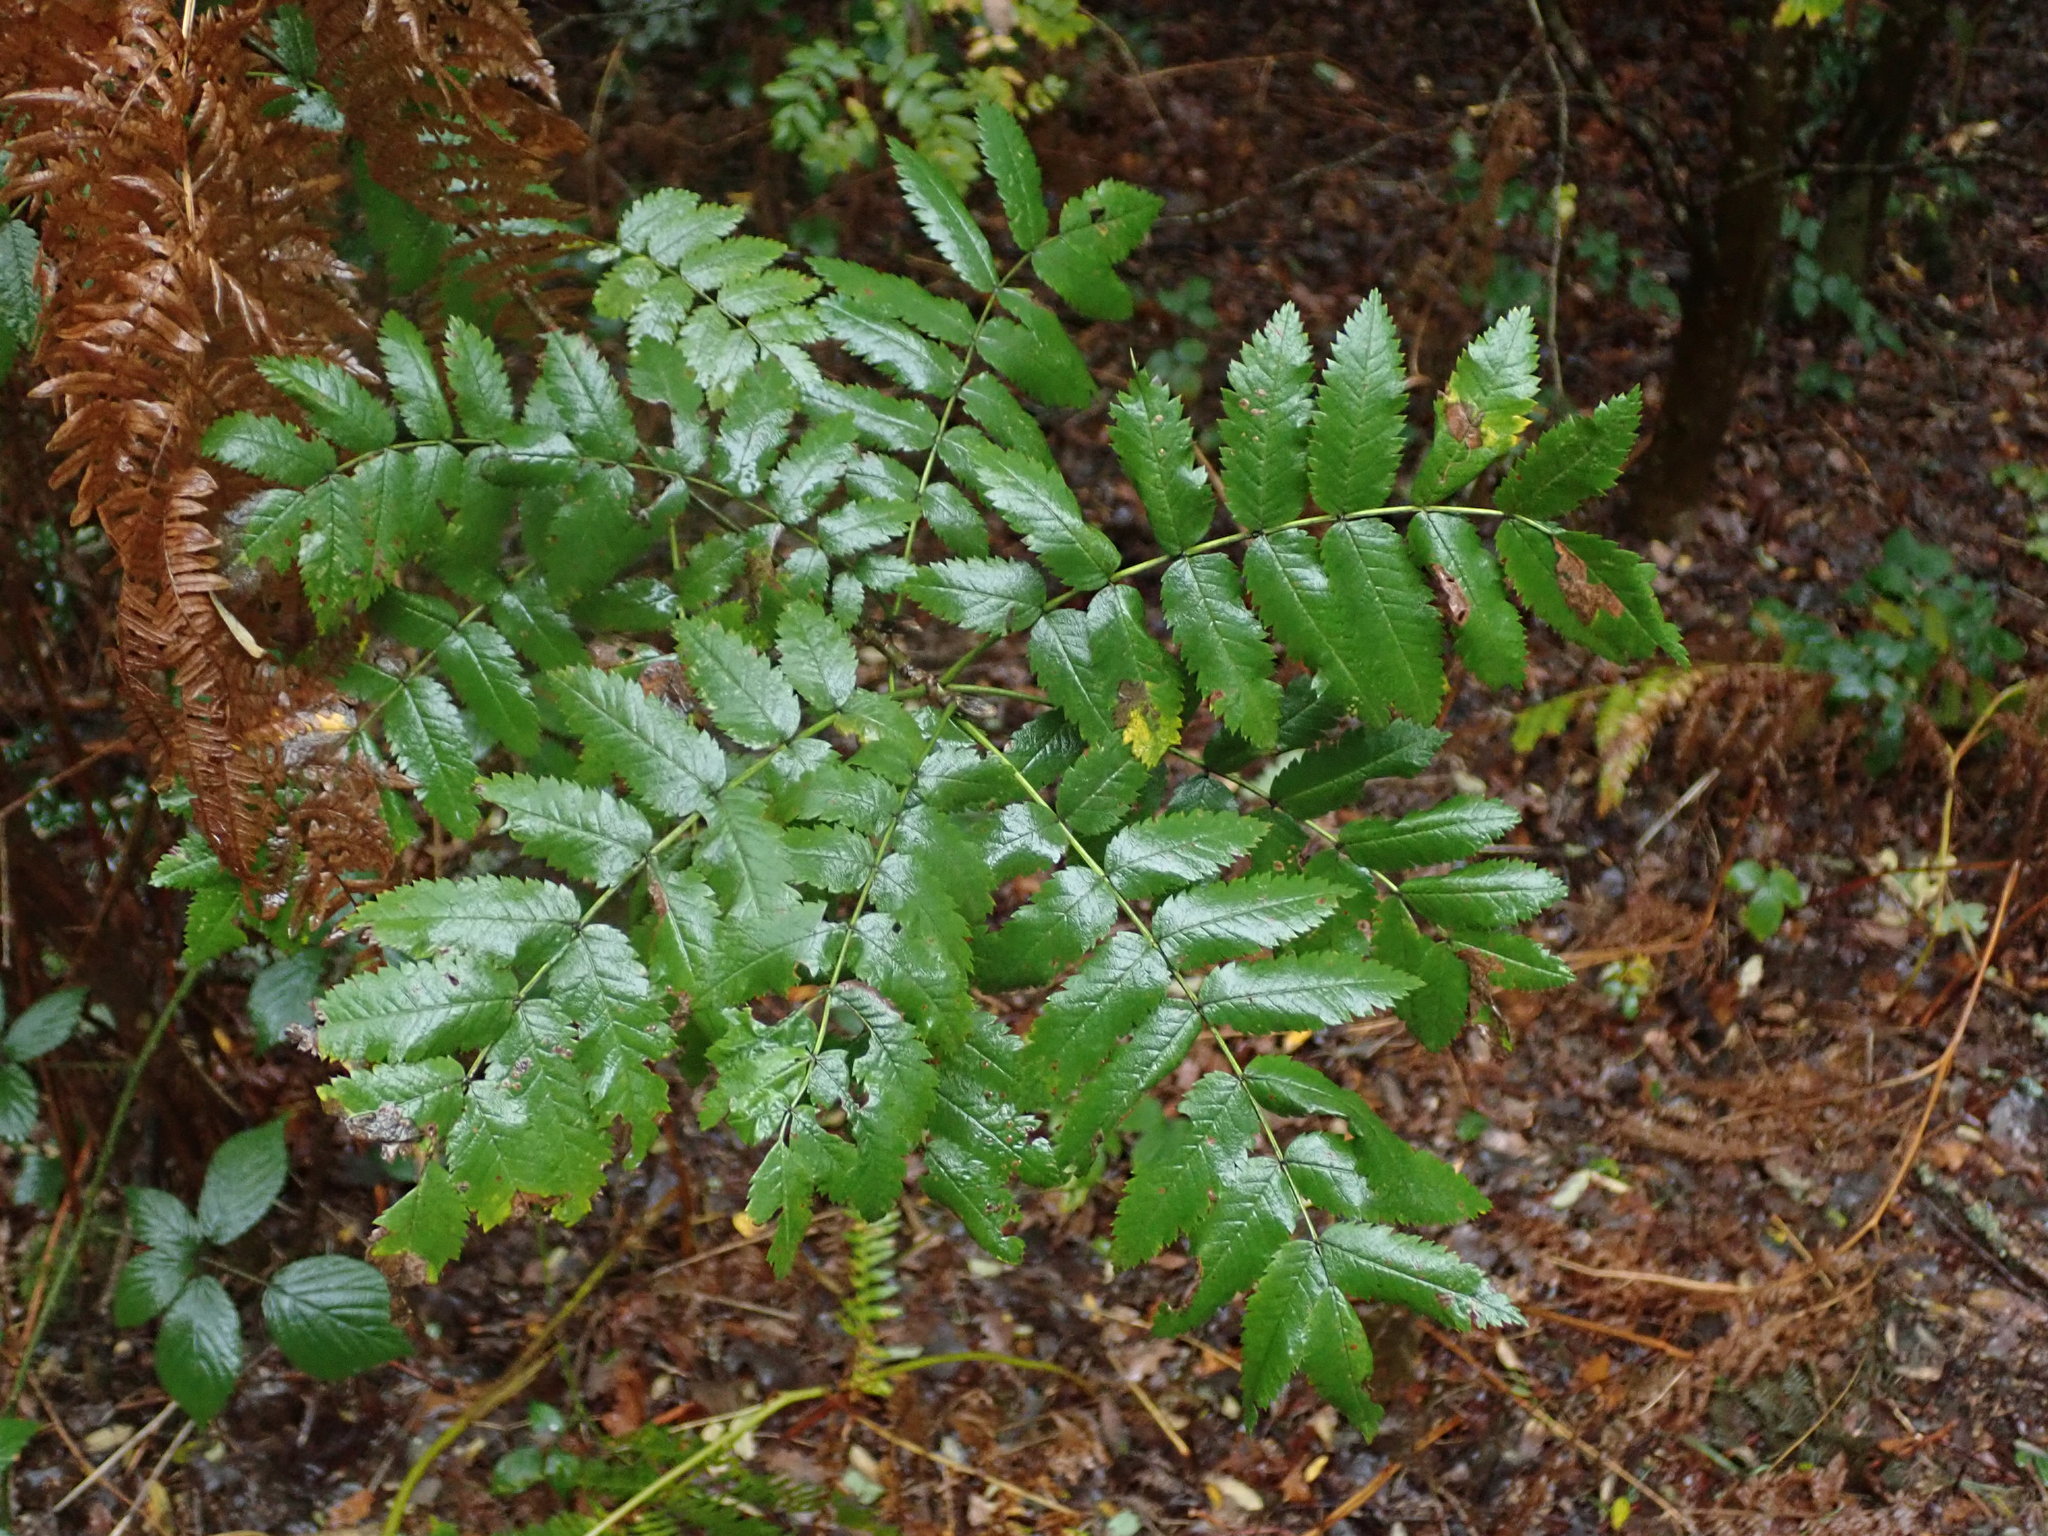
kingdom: Plantae
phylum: Tracheophyta
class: Magnoliopsida
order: Rosales
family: Rosaceae
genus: Sorbus
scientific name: Sorbus aucuparia
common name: Rowan
